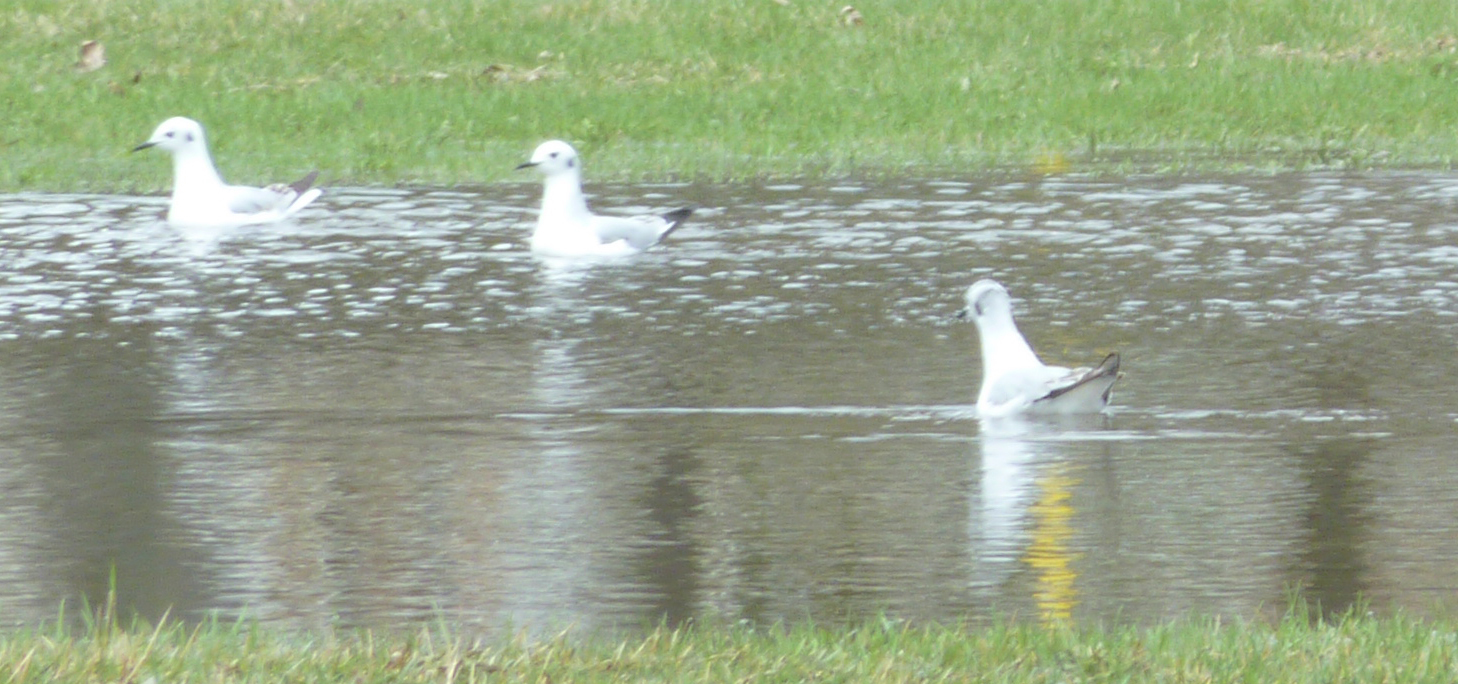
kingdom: Animalia
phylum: Chordata
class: Aves
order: Charadriiformes
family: Laridae
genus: Chroicocephalus
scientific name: Chroicocephalus philadelphia
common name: Bonaparte's gull
